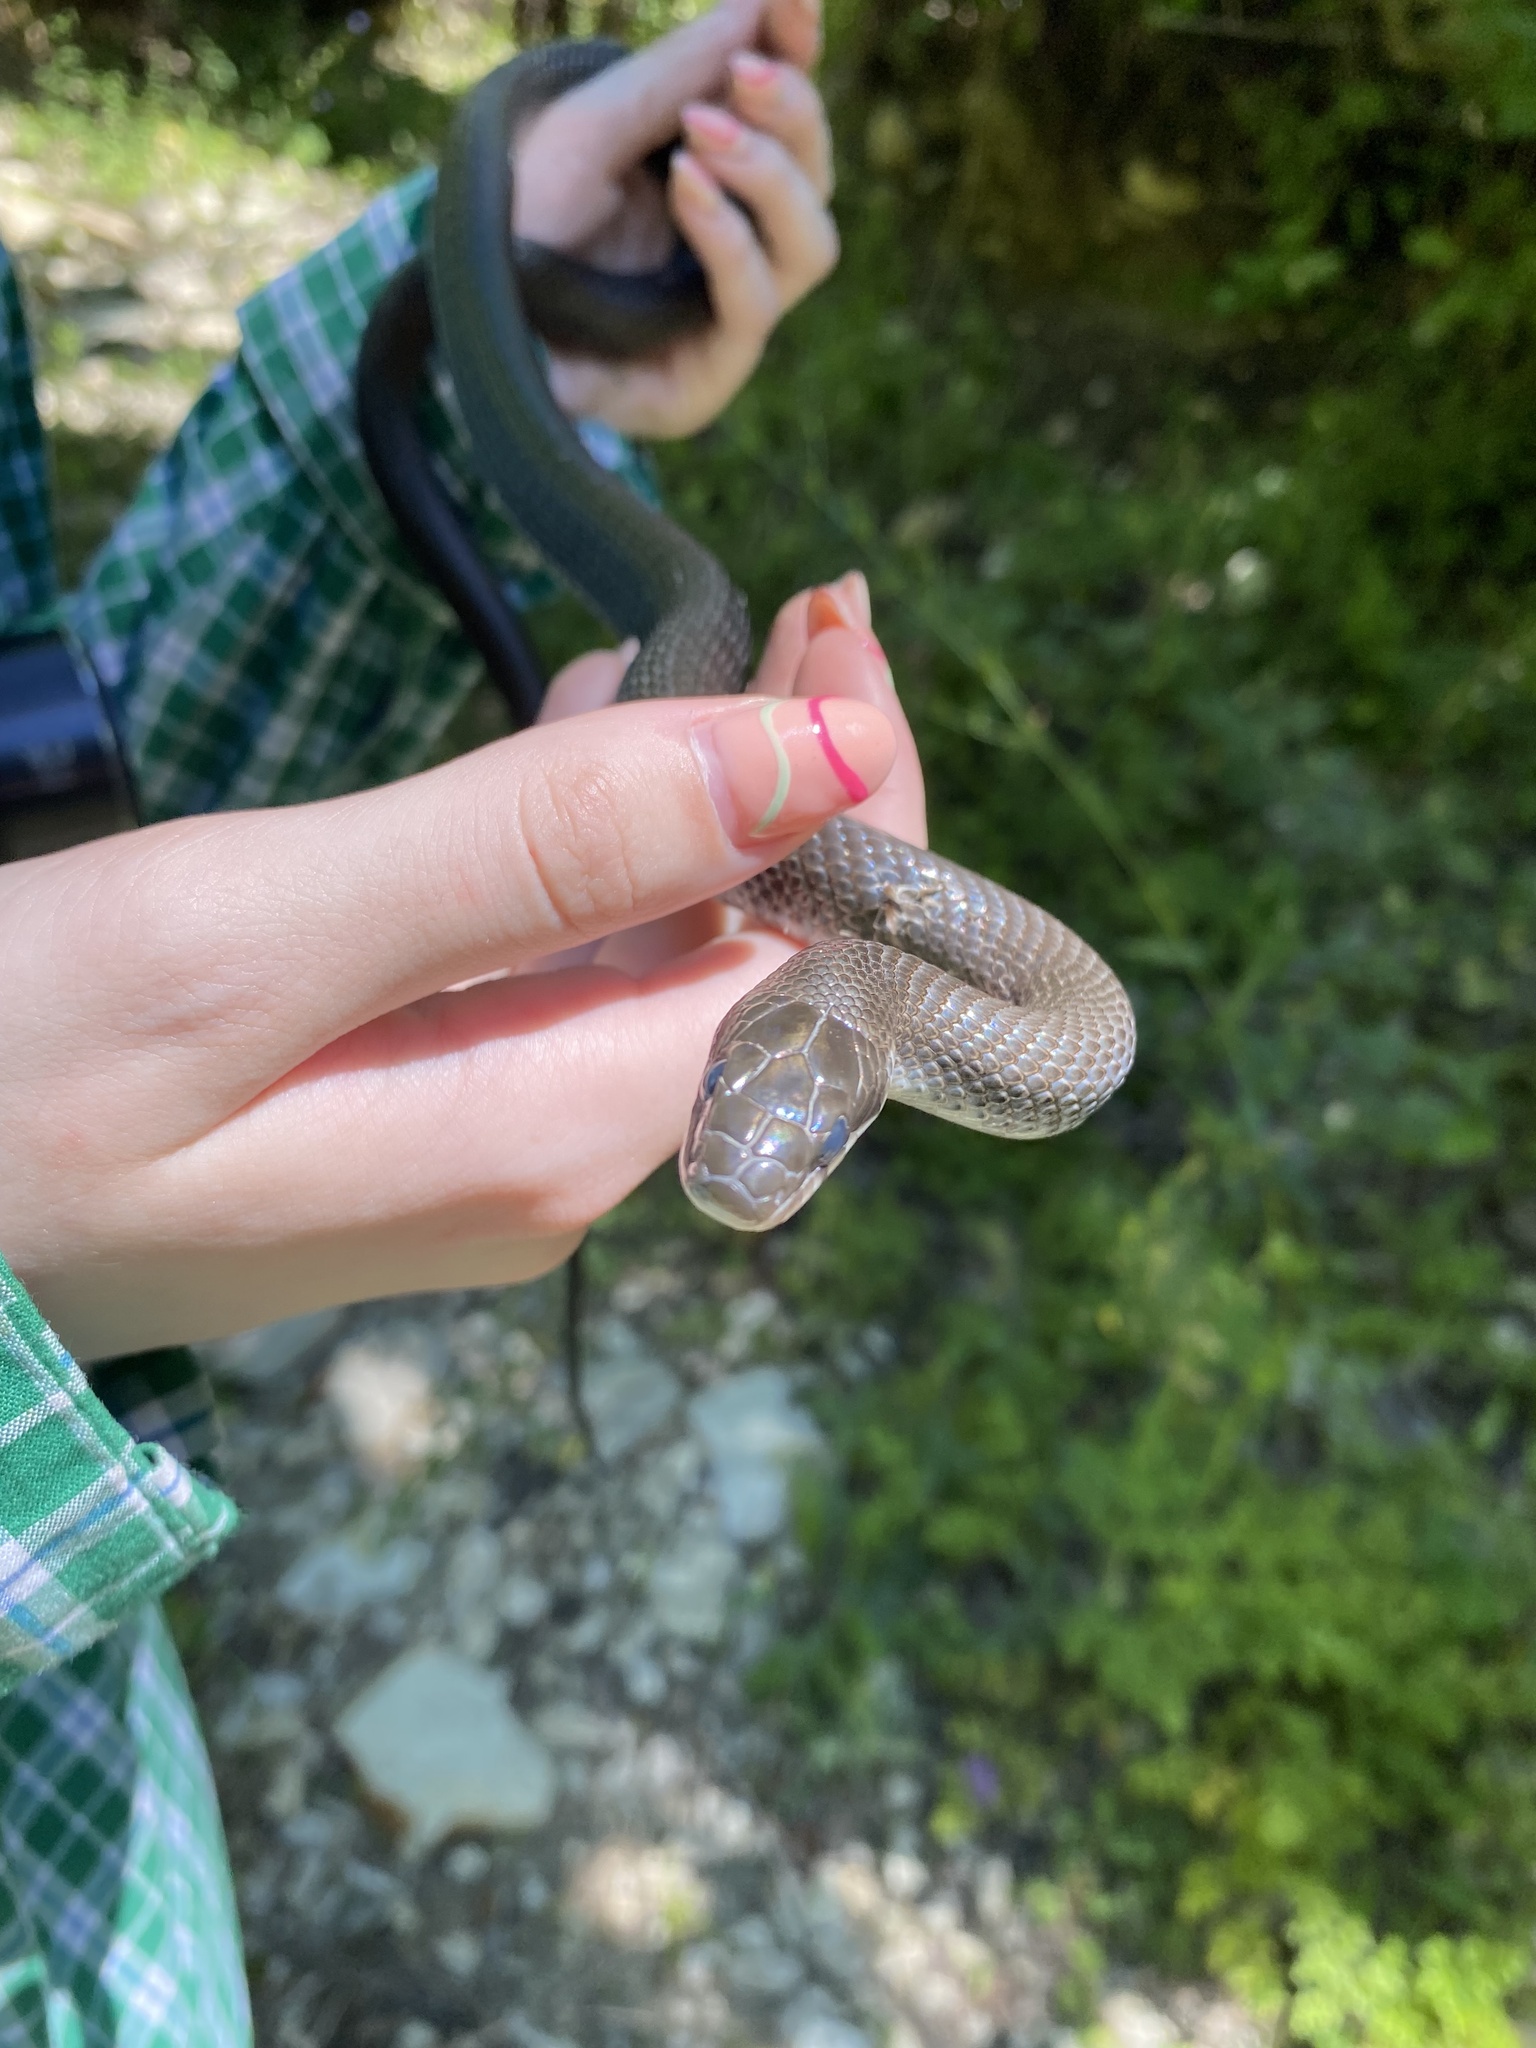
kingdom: Animalia
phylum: Chordata
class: Squamata
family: Colubridae
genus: Zamenis
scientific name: Zamenis longissimus
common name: Aesculapean snake
